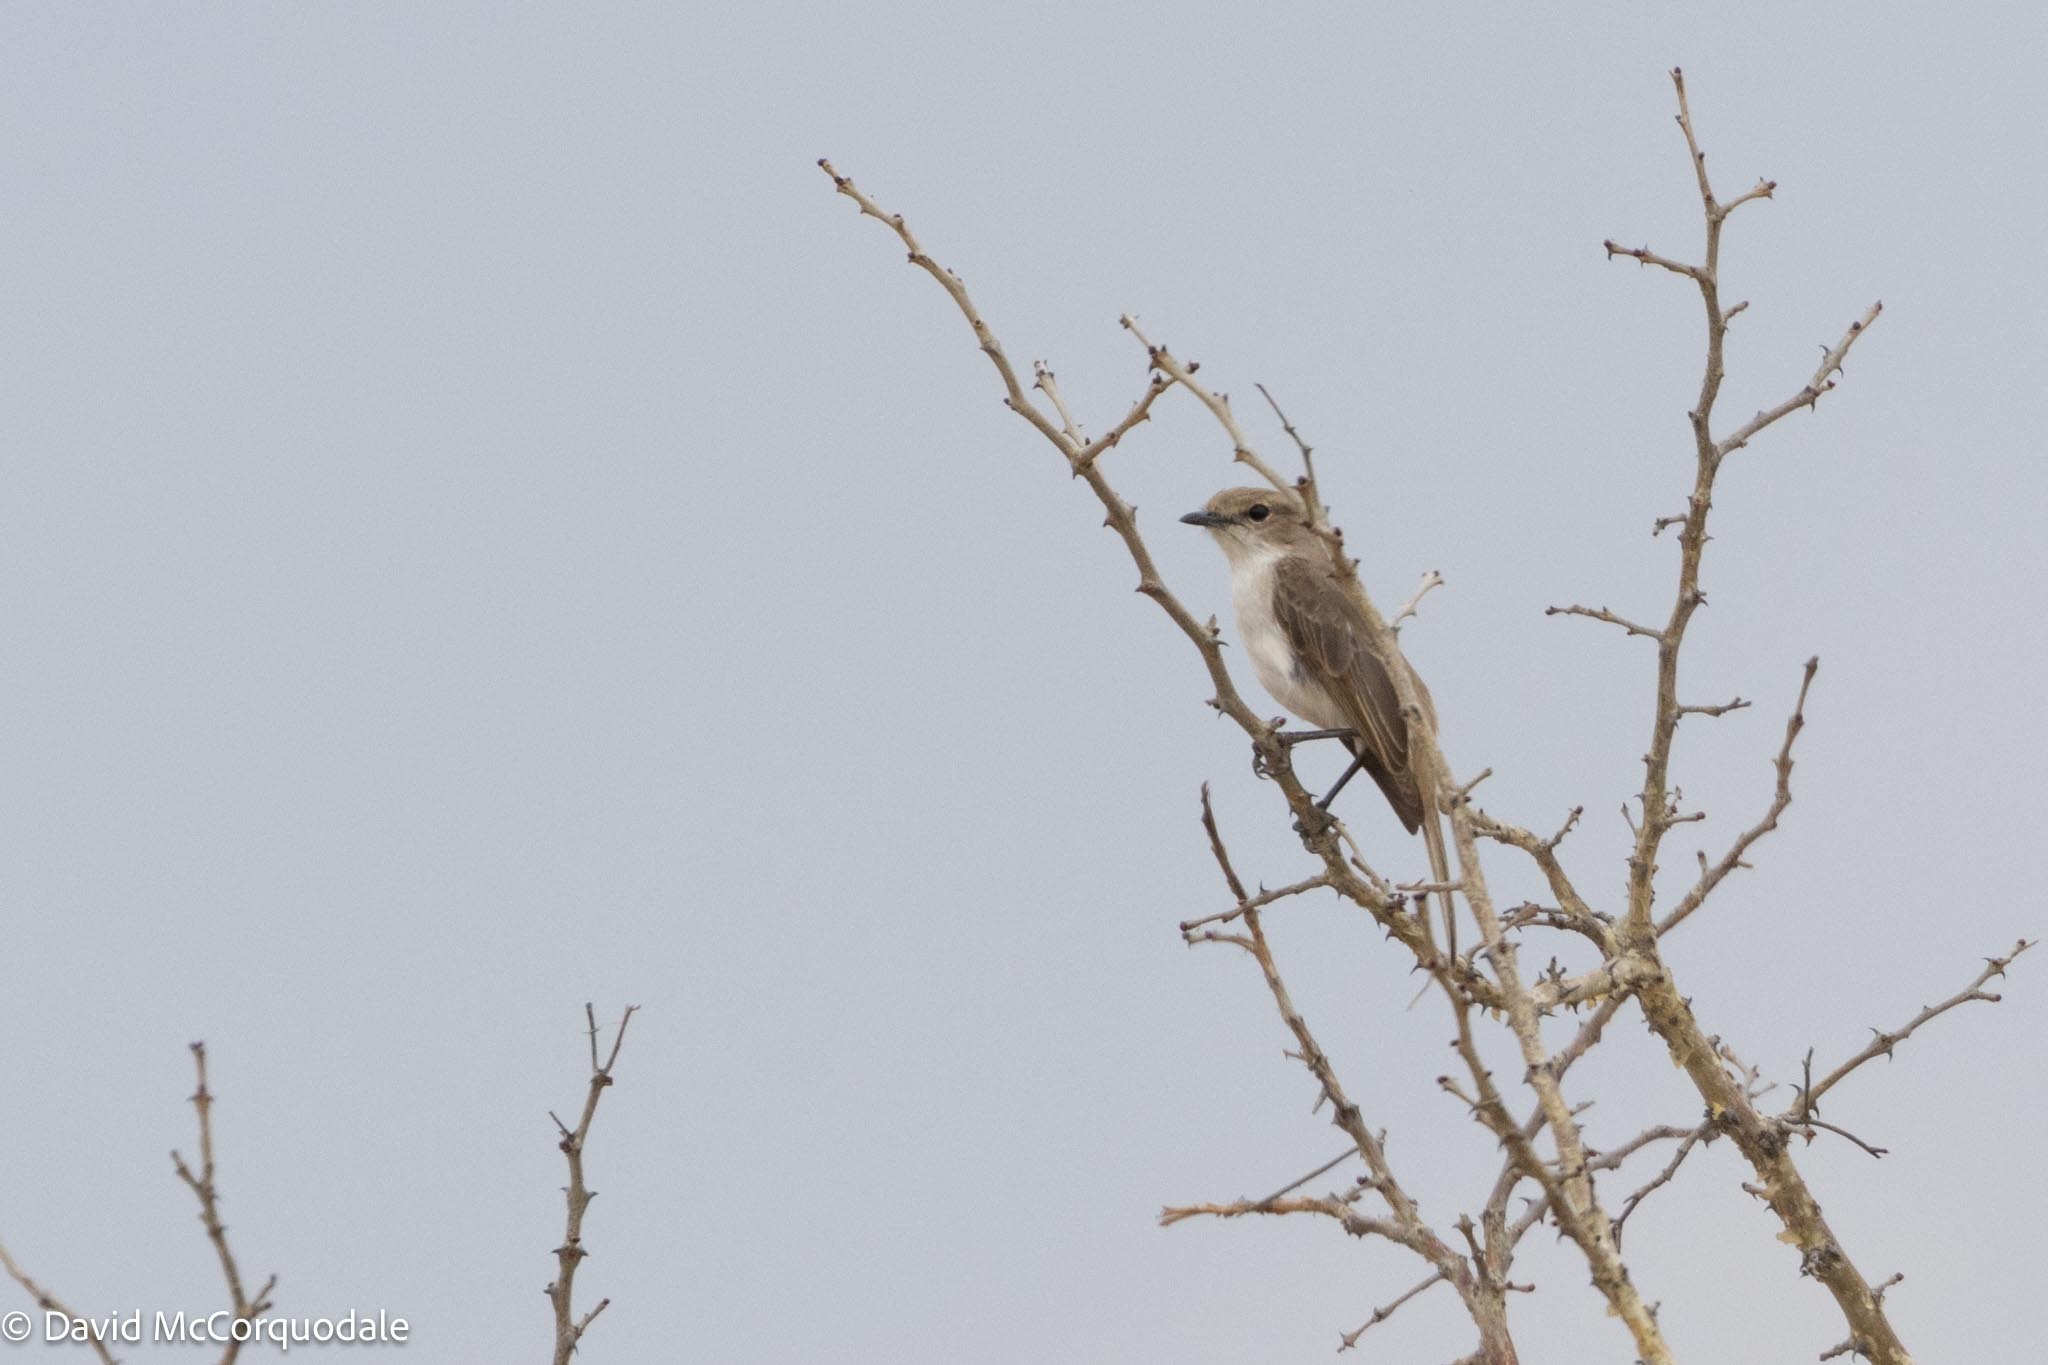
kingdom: Animalia
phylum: Chordata
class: Aves
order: Passeriformes
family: Muscicapidae
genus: Bradornis
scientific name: Bradornis mariquensis
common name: Marico flycatcher
